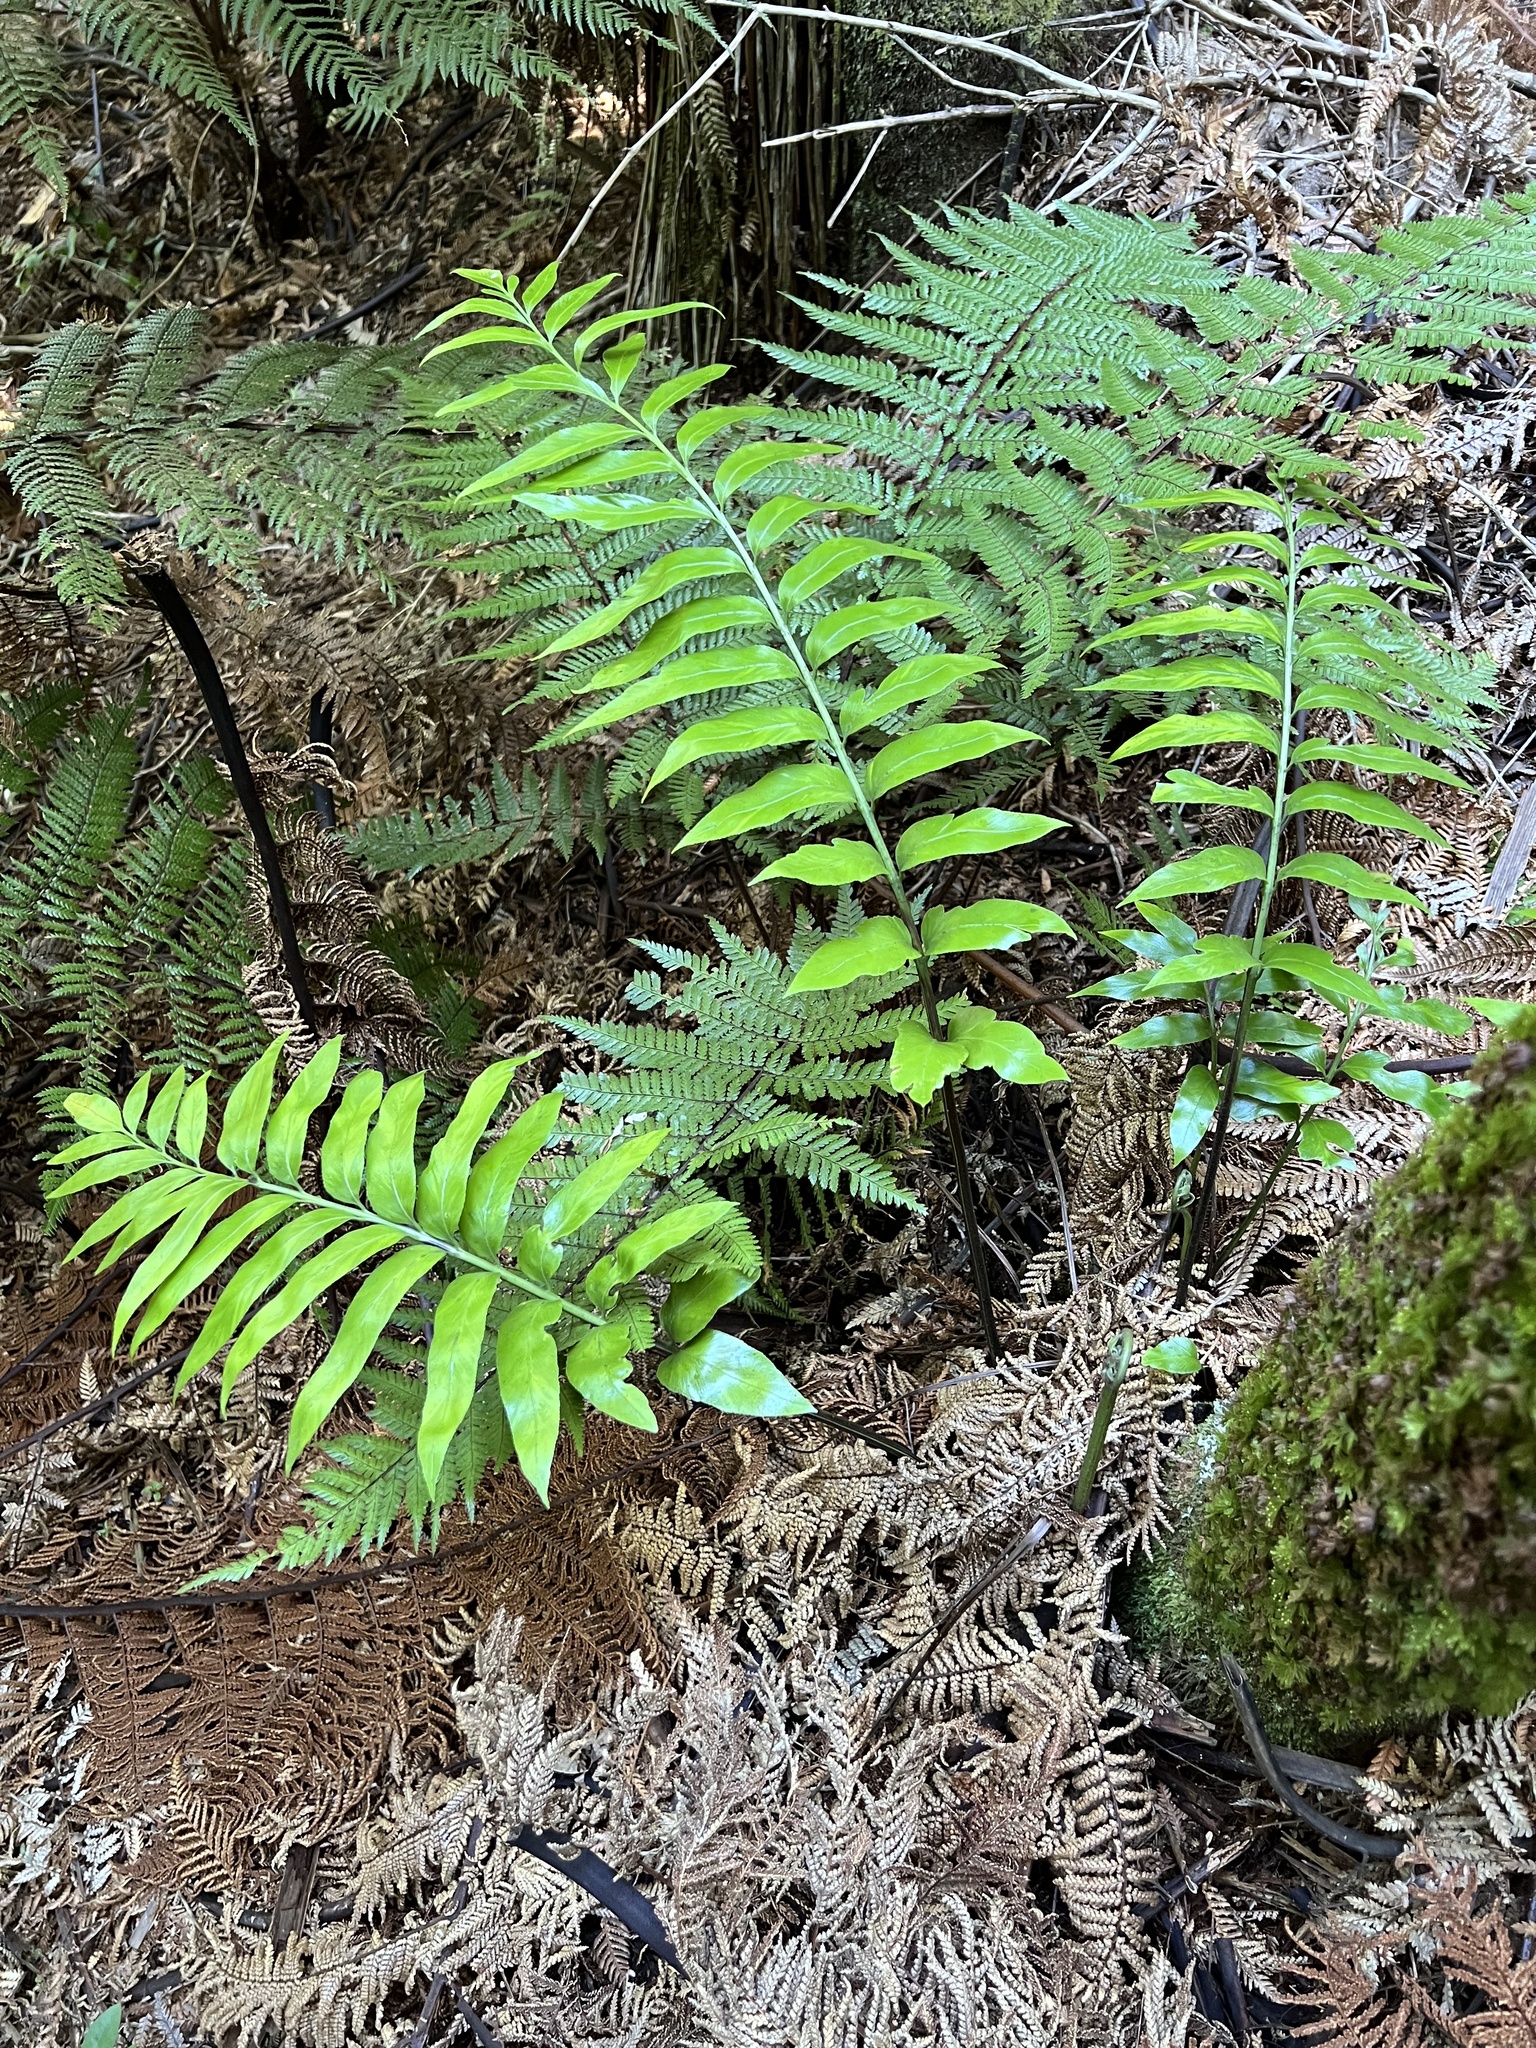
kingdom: Plantae
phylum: Tracheophyta
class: Polypodiopsida
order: Polypodiales
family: Aspleniaceae
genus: Asplenium
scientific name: Asplenium oblongifolium
